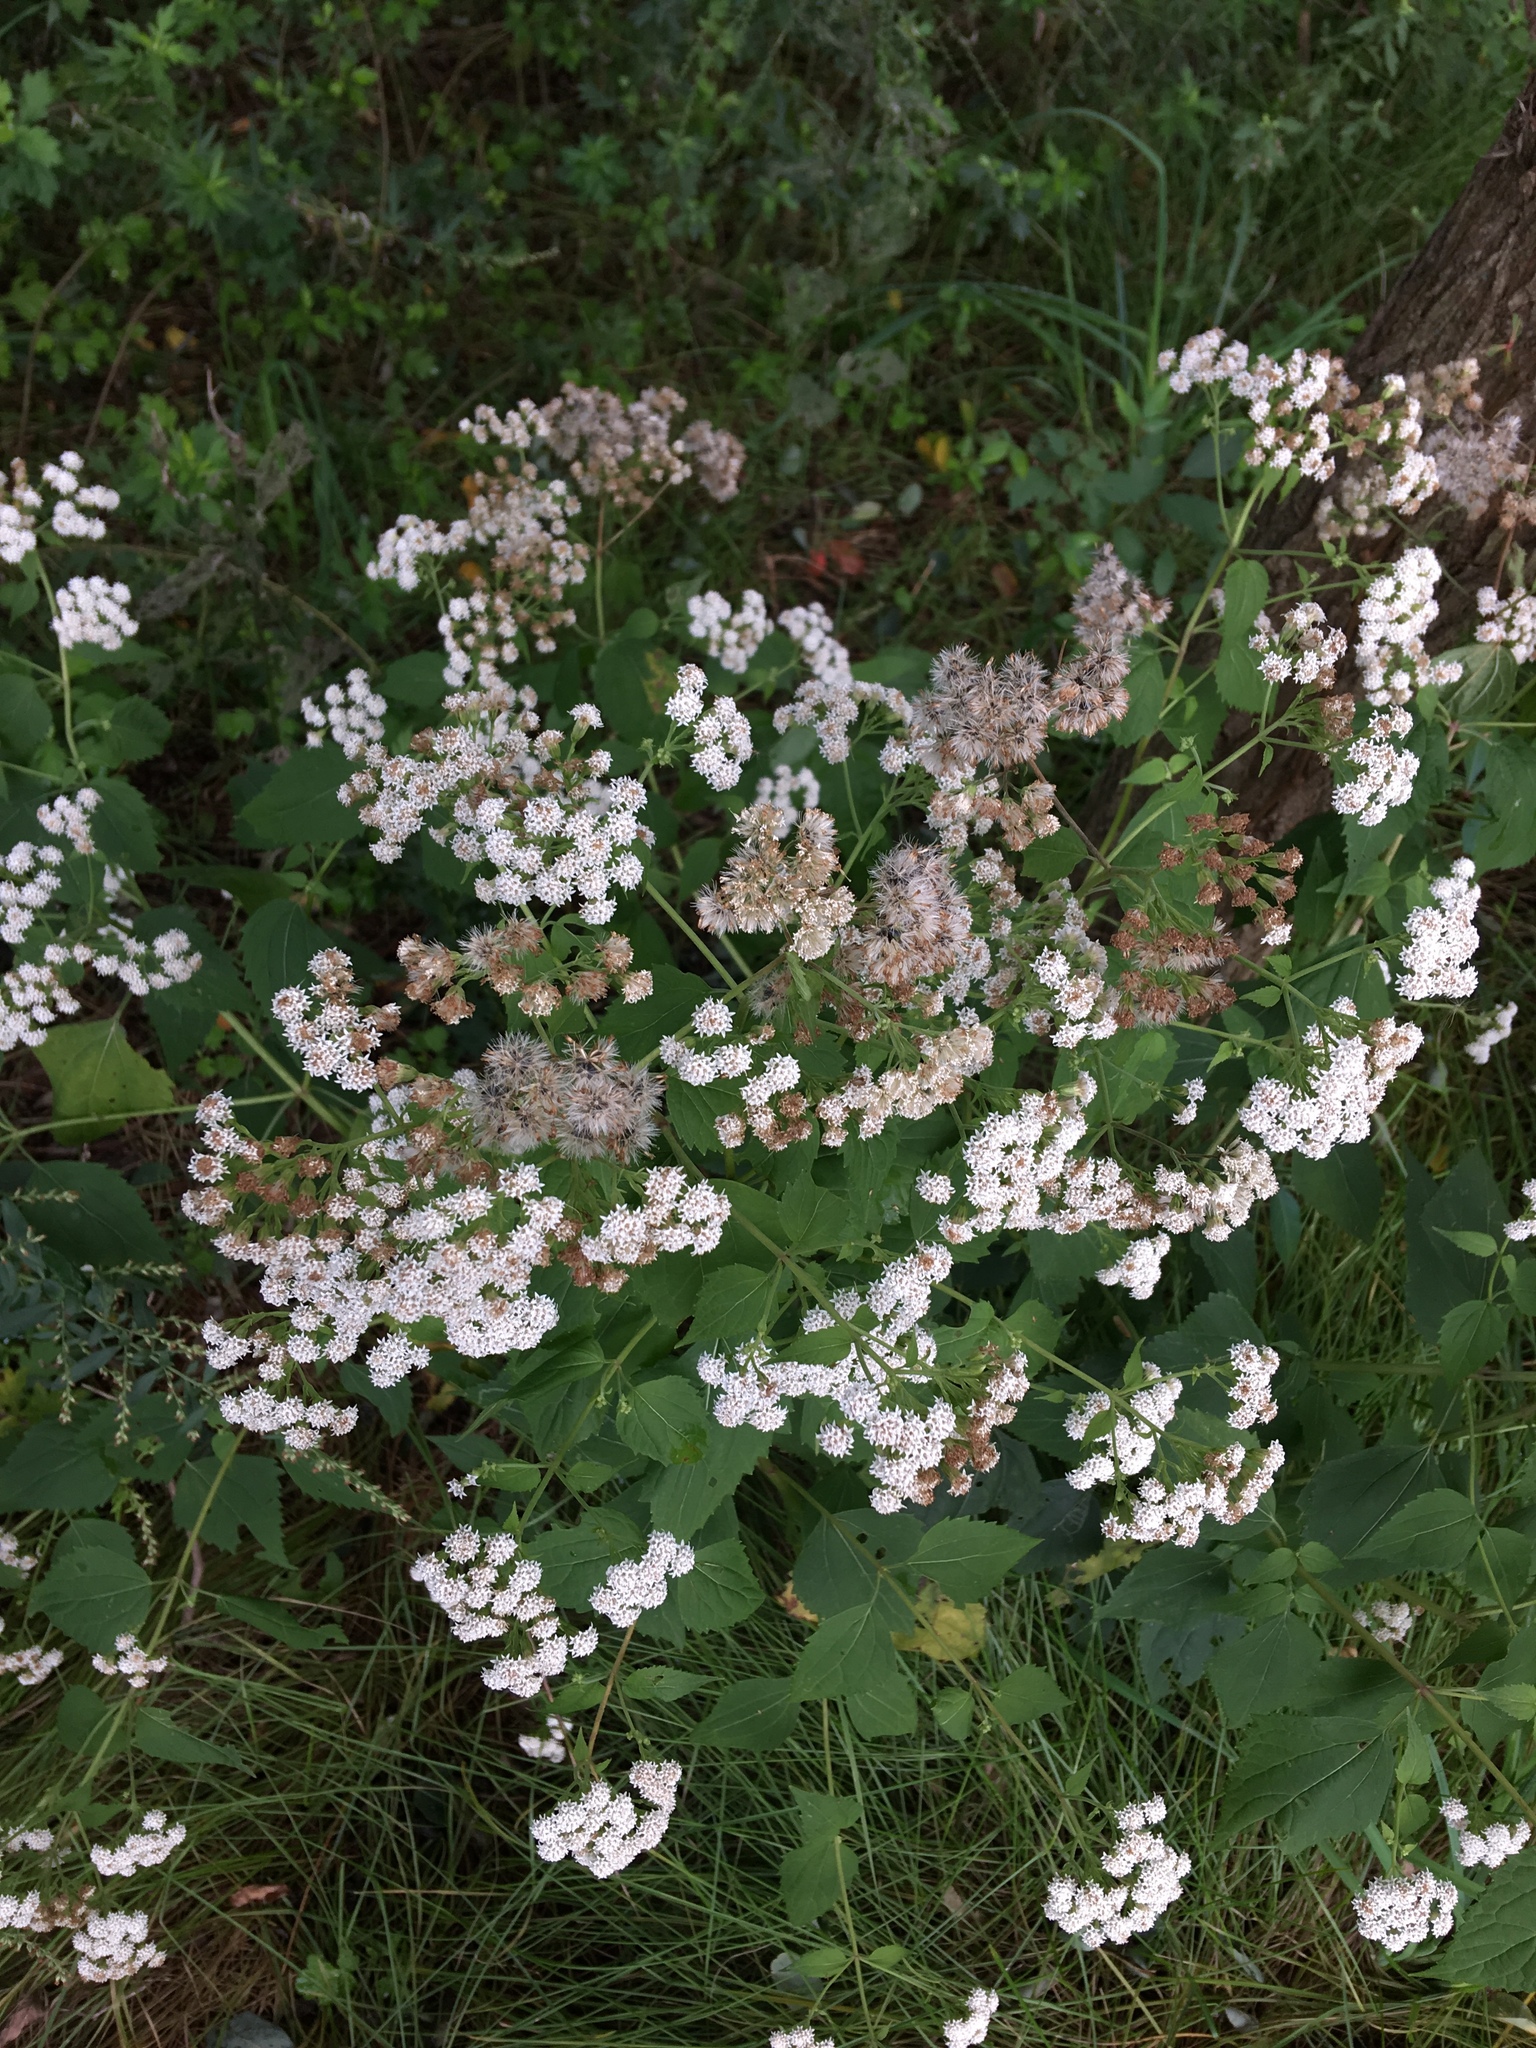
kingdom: Plantae
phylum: Tracheophyta
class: Magnoliopsida
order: Asterales
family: Asteraceae
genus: Ageratina
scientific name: Ageratina altissima
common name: White snakeroot
